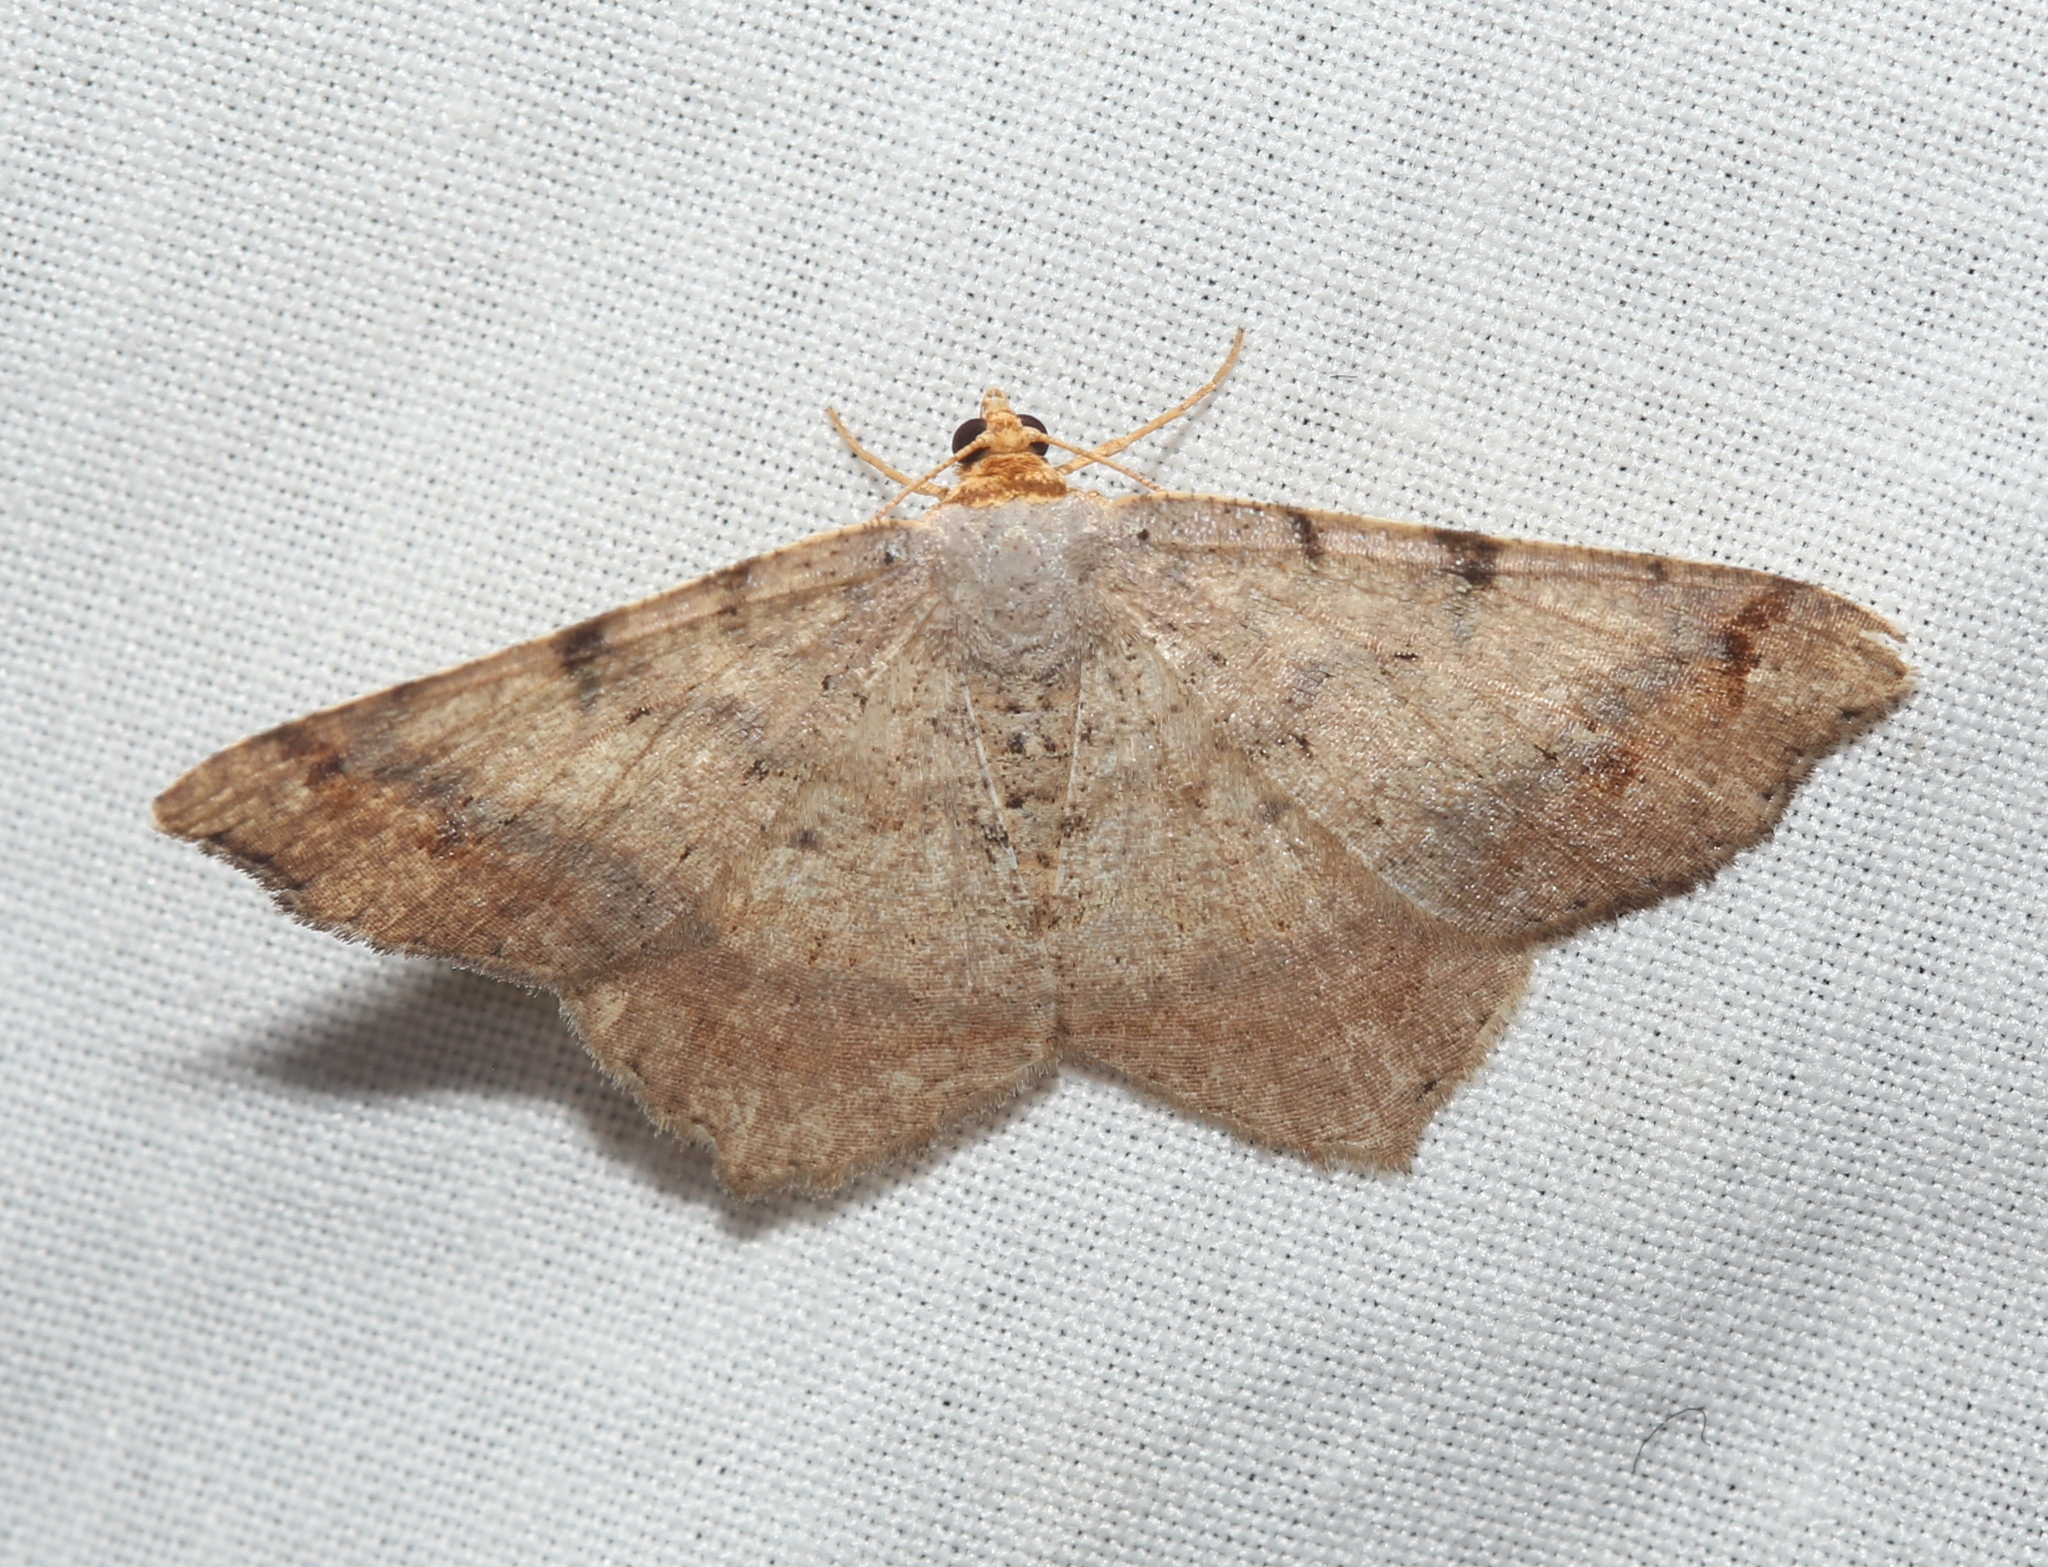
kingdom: Animalia
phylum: Arthropoda
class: Insecta
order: Lepidoptera
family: Geometridae
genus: Macaria
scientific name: Macaria bicolorata
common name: Dingy angle
